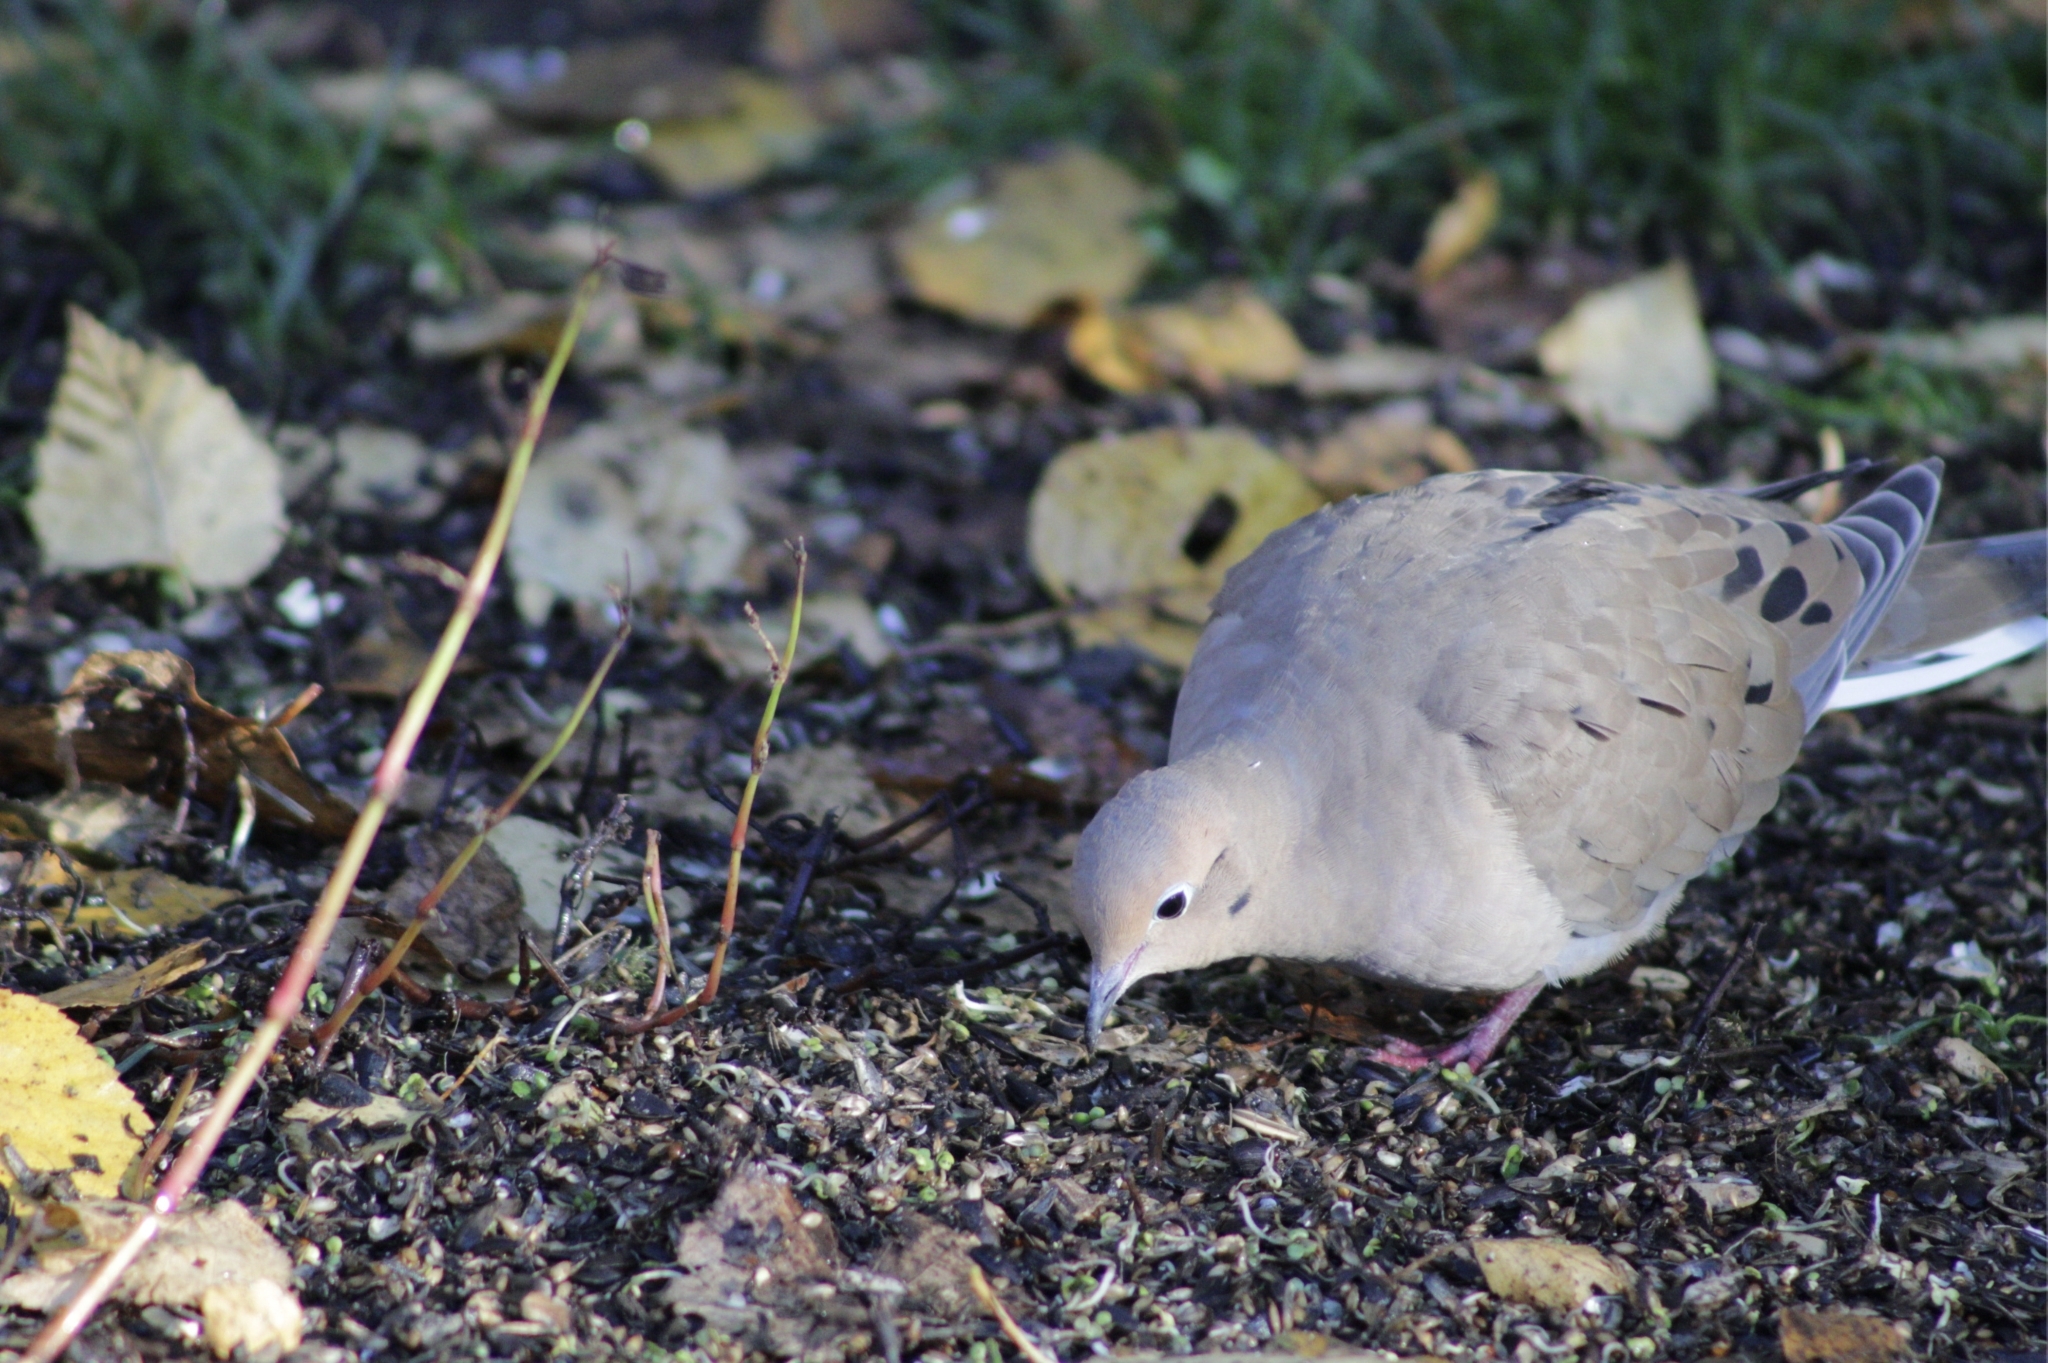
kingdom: Animalia
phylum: Chordata
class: Aves
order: Columbiformes
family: Columbidae
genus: Zenaida
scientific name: Zenaida macroura
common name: Mourning dove
